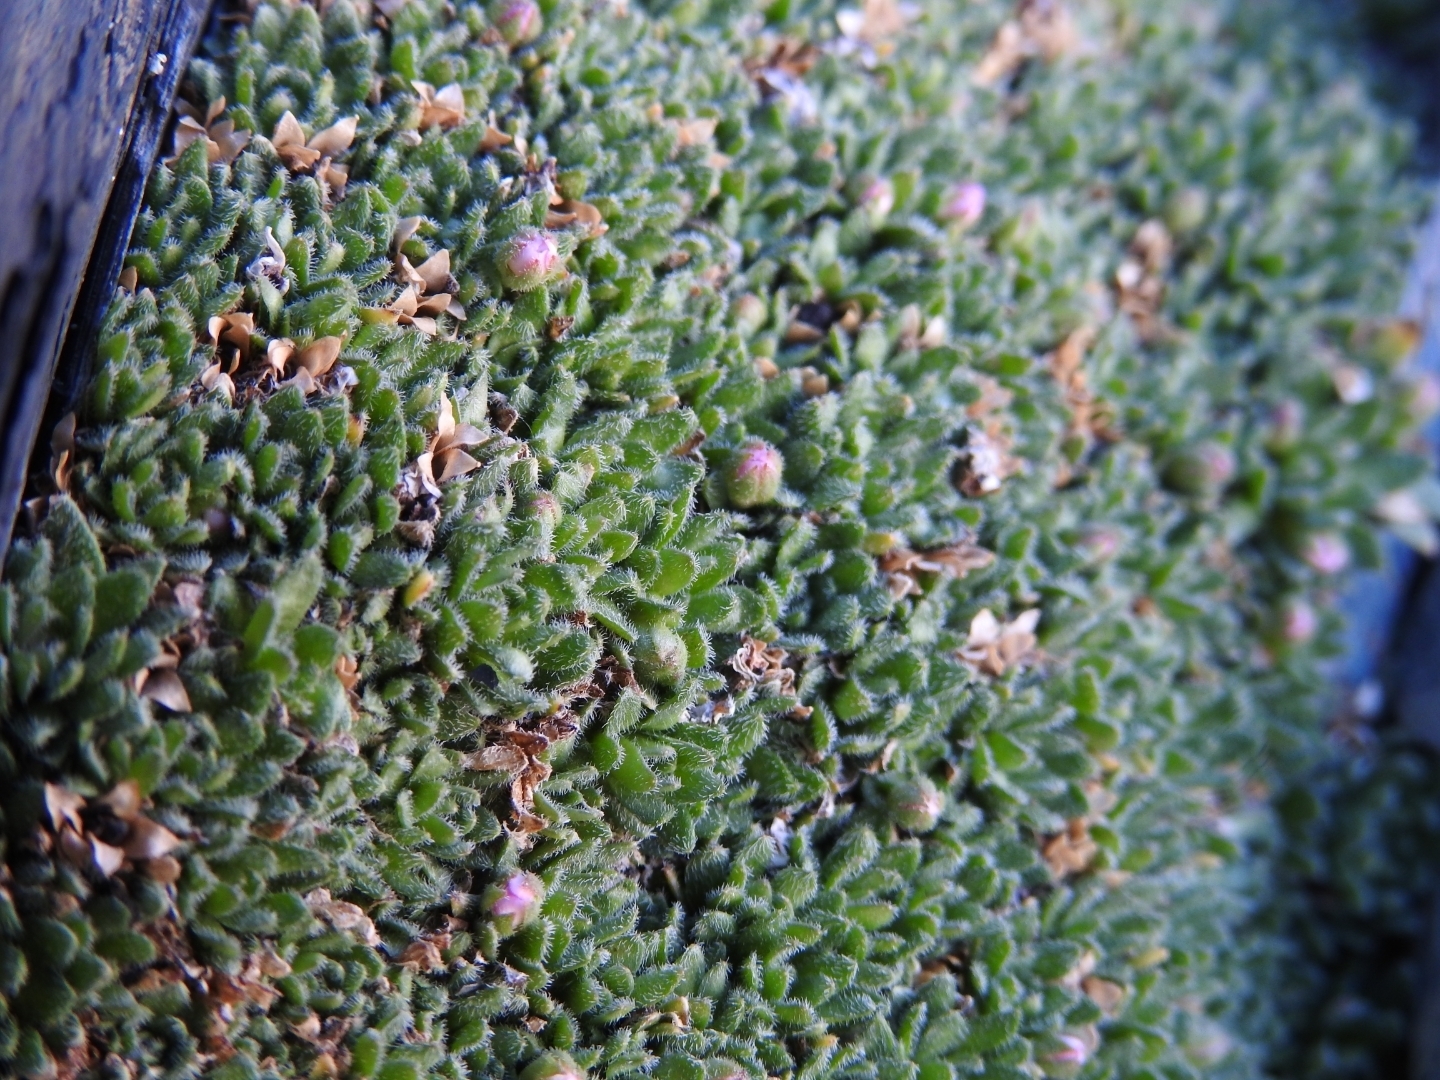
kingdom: Plantae
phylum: Tracheophyta
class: Magnoliopsida
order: Ericales
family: Primulaceae
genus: Androsace
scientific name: Androsace delphinensis
